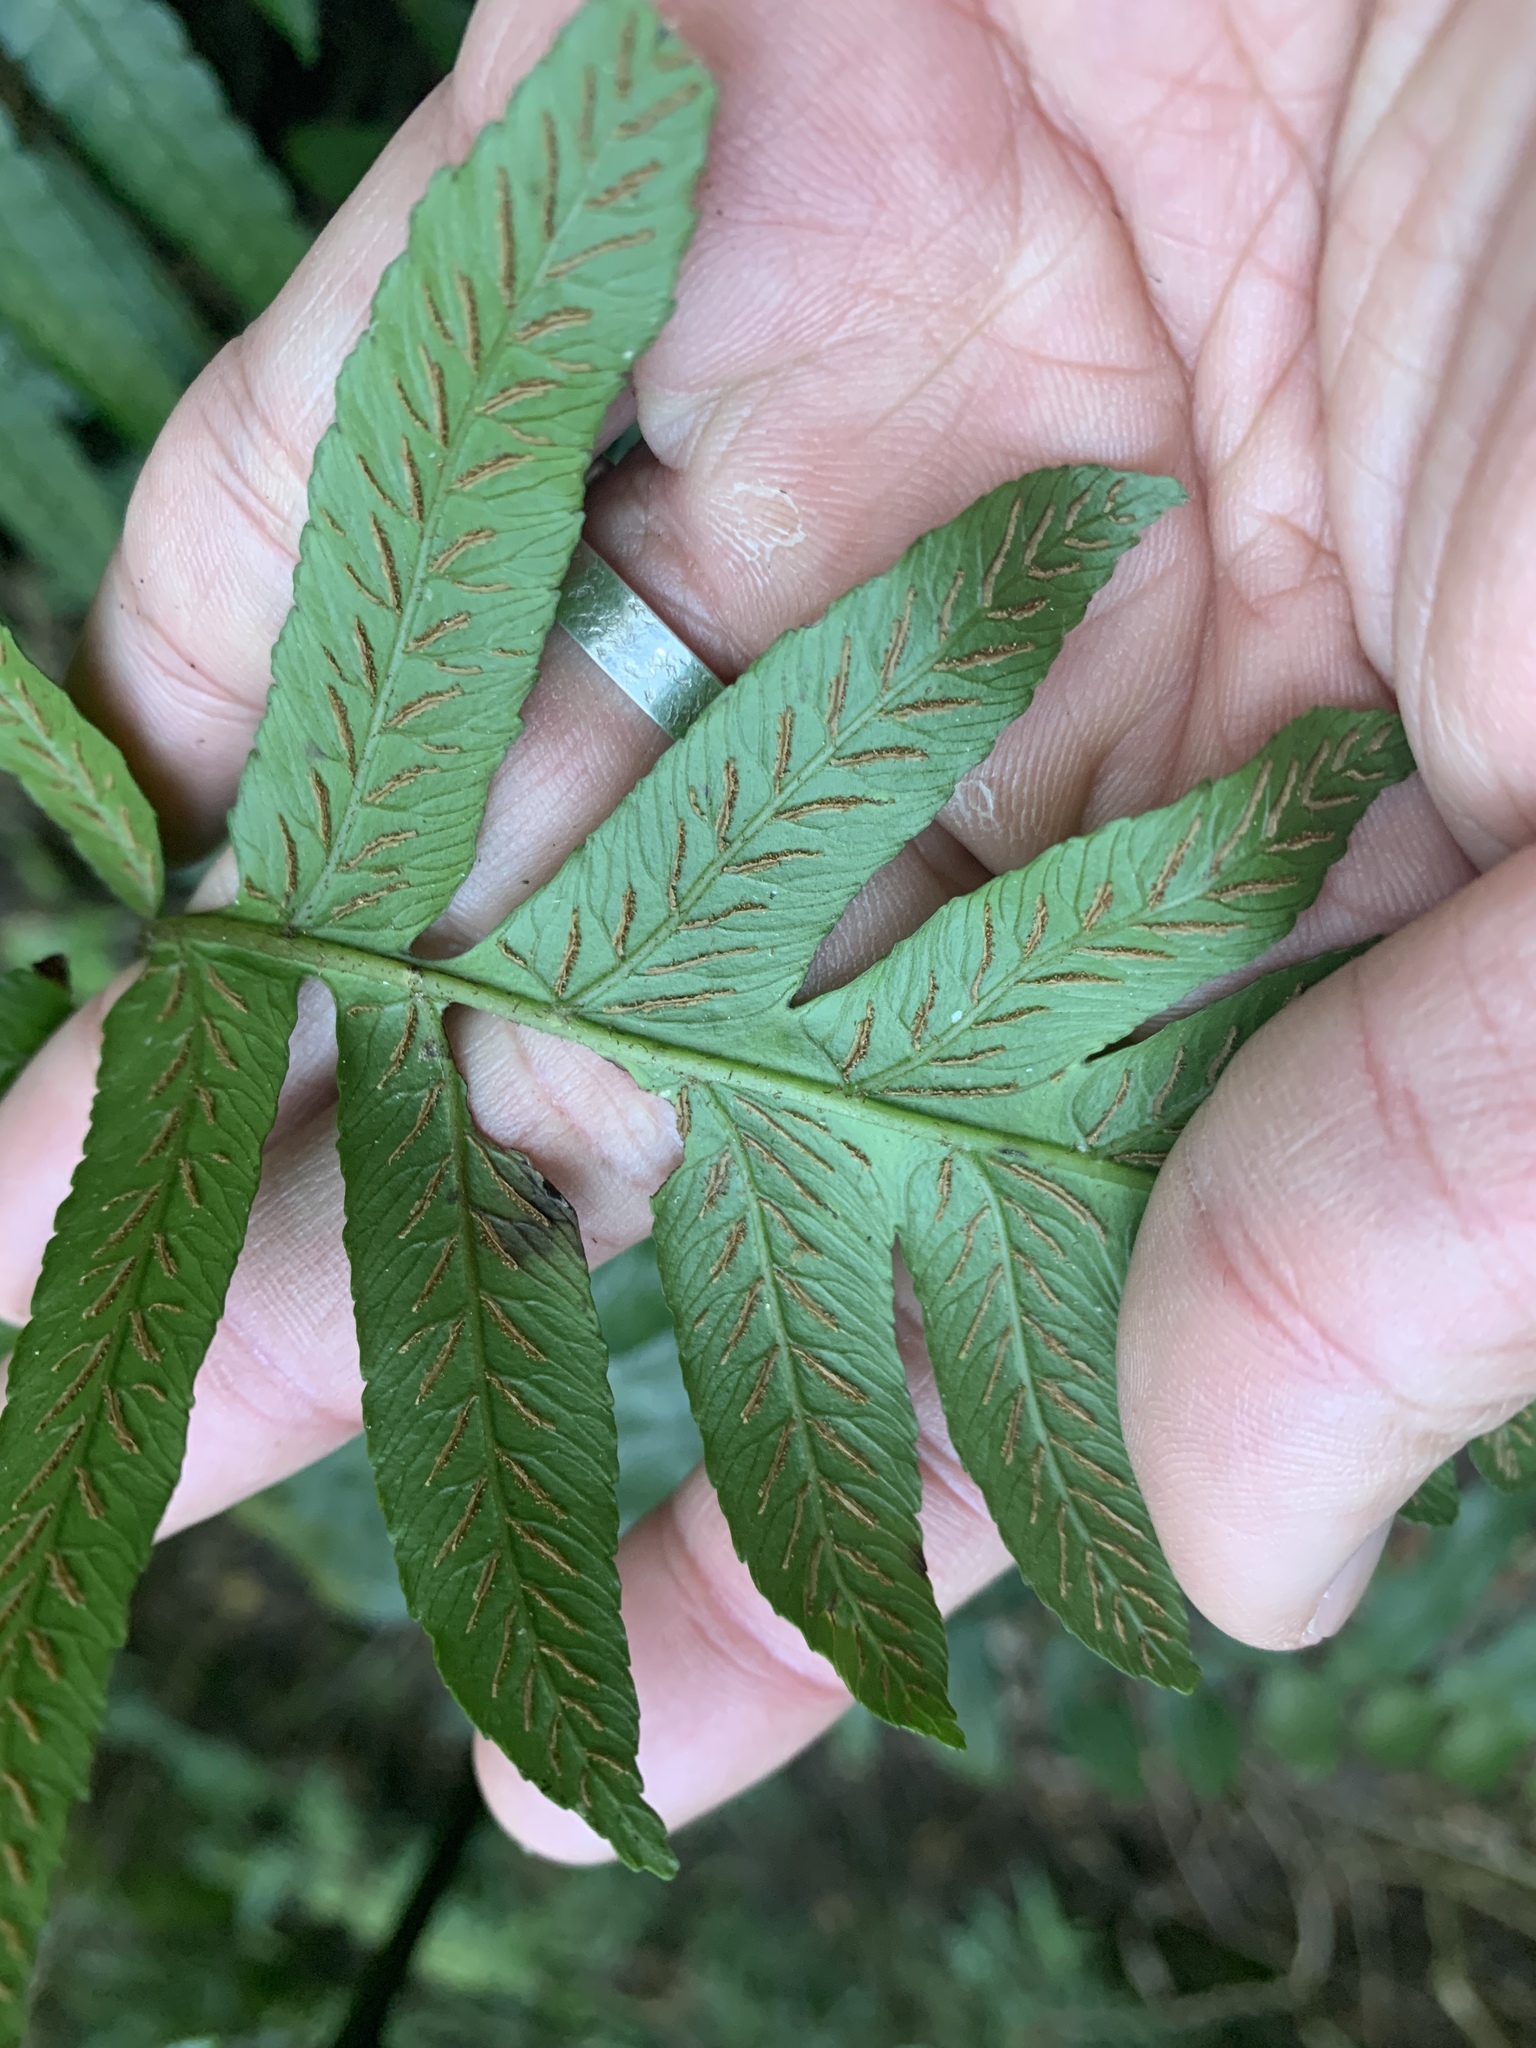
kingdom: Plantae
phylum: Tracheophyta
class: Polypodiopsida
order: Polypodiales
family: Athyriaceae
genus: Diplazium
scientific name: Diplazium dilatatum
